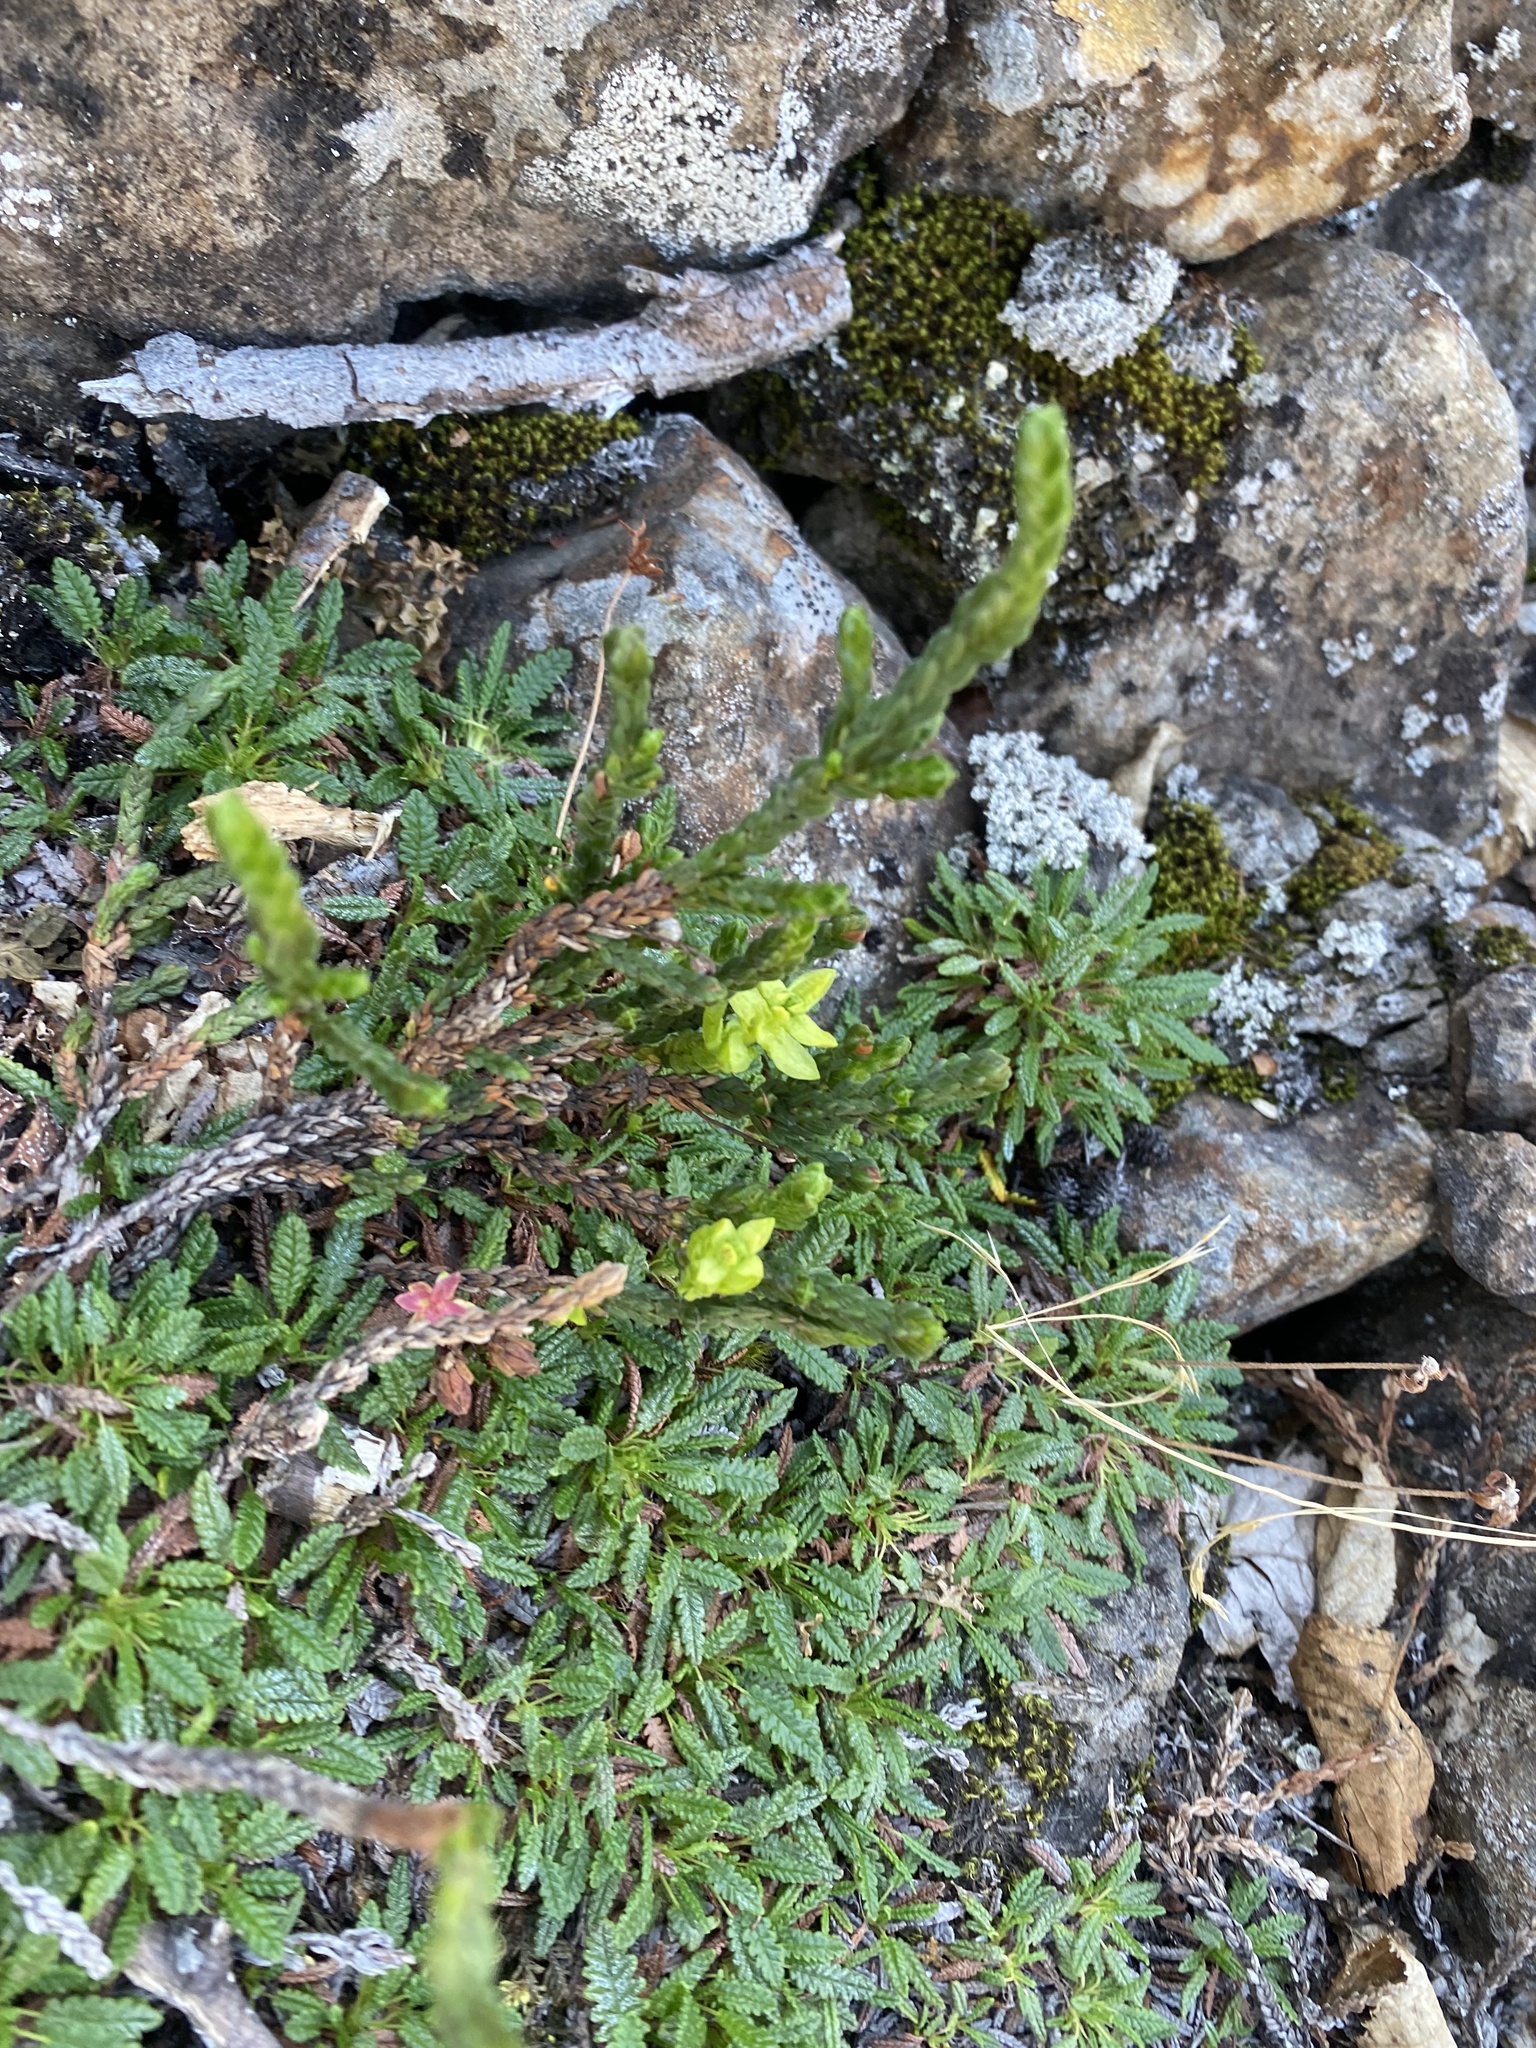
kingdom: Plantae
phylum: Tracheophyta
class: Magnoliopsida
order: Rosales
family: Rosaceae
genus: Dryas
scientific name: Dryas octopetala
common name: Eight-petal mountain-avens
